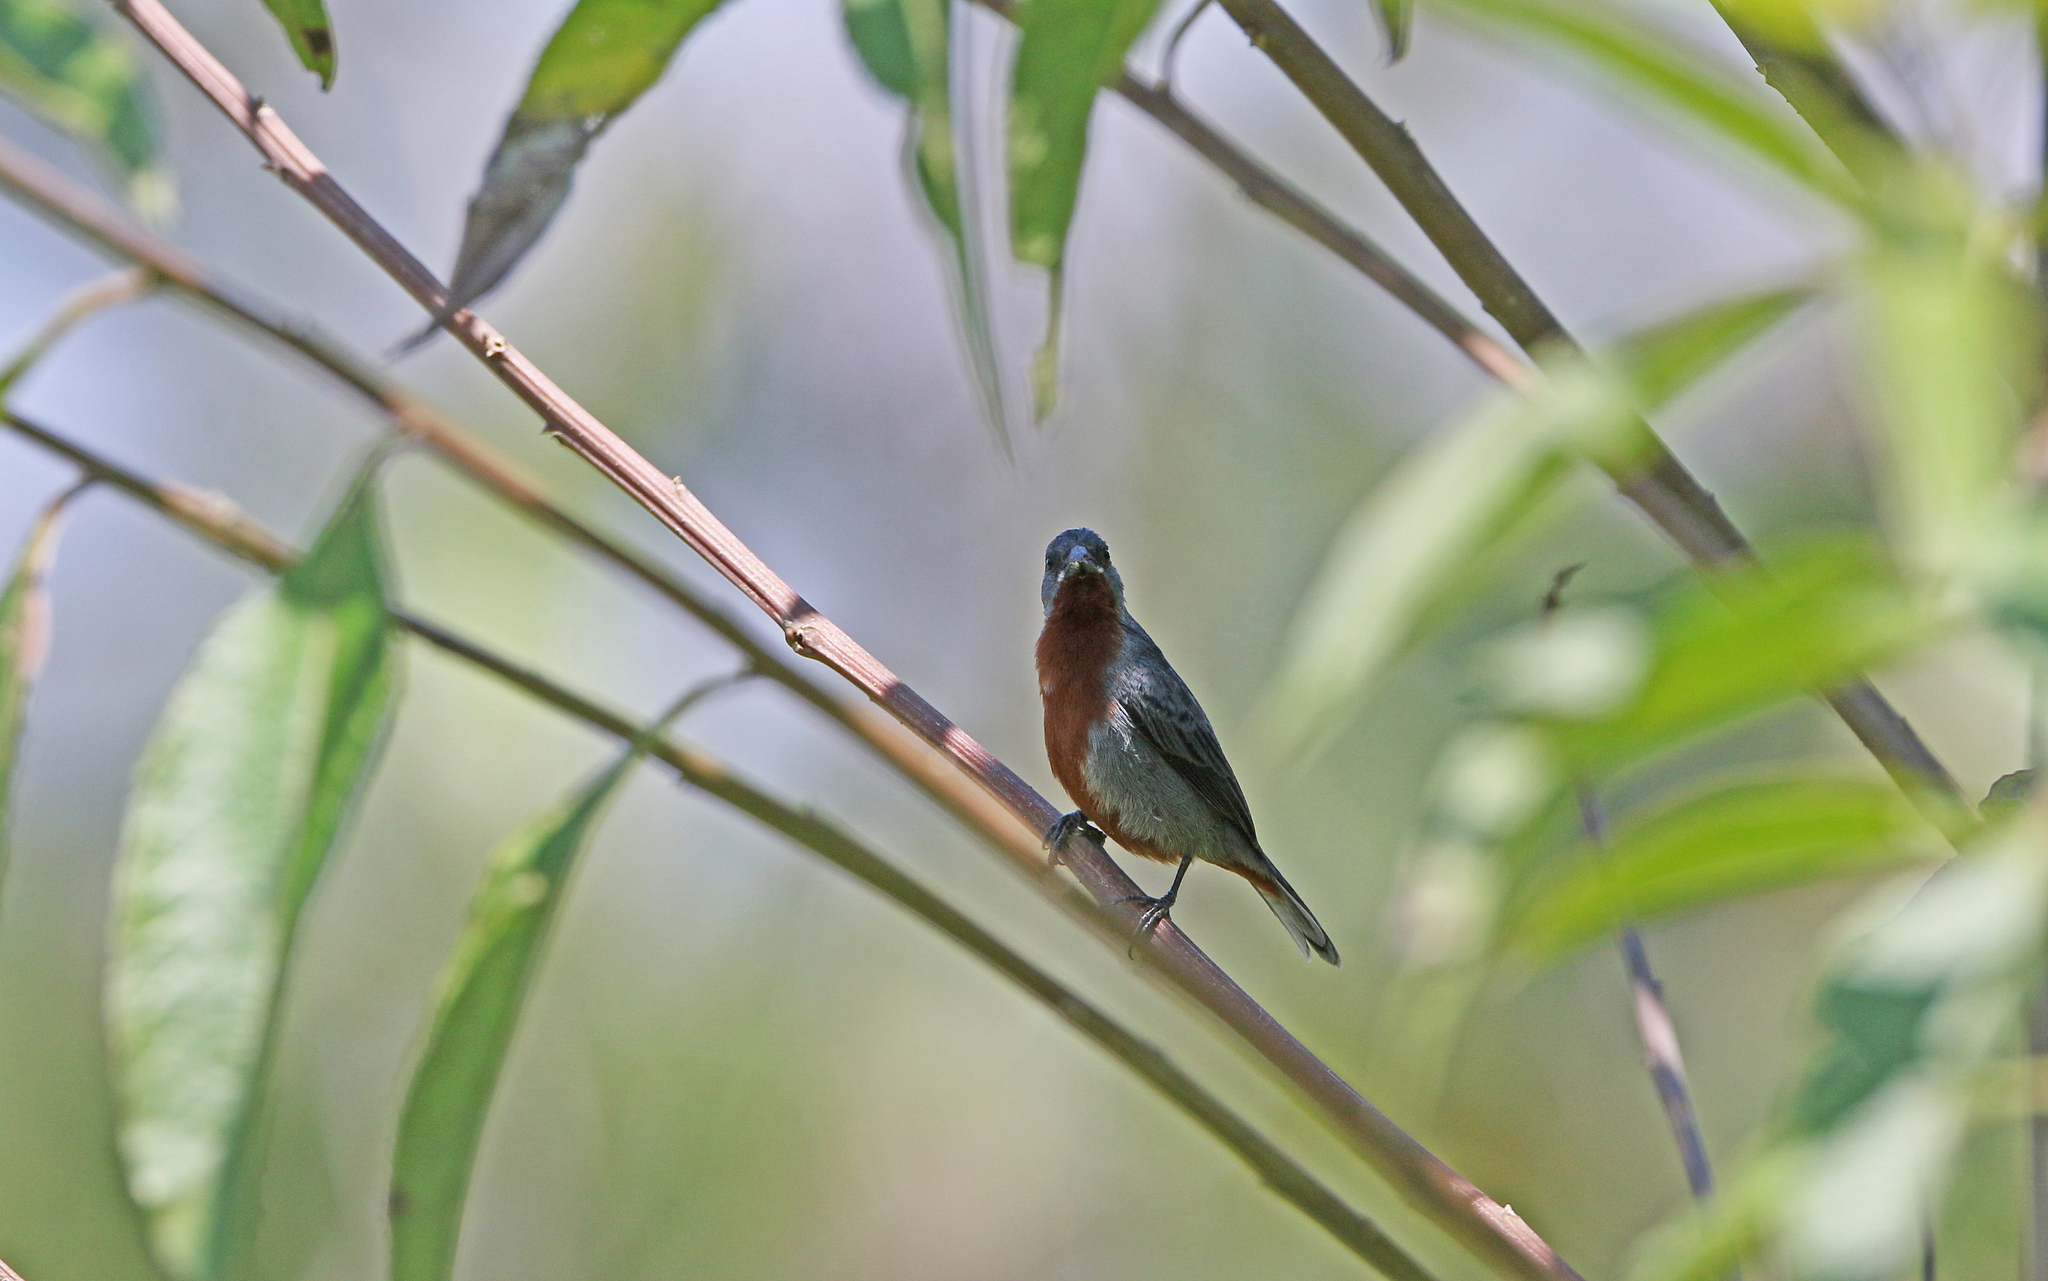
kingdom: Animalia
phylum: Chordata
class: Aves
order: Passeriformes
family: Thraupidae
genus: Sporophila
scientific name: Sporophila castaneiventris
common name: Chestnut-bellied seedeater
